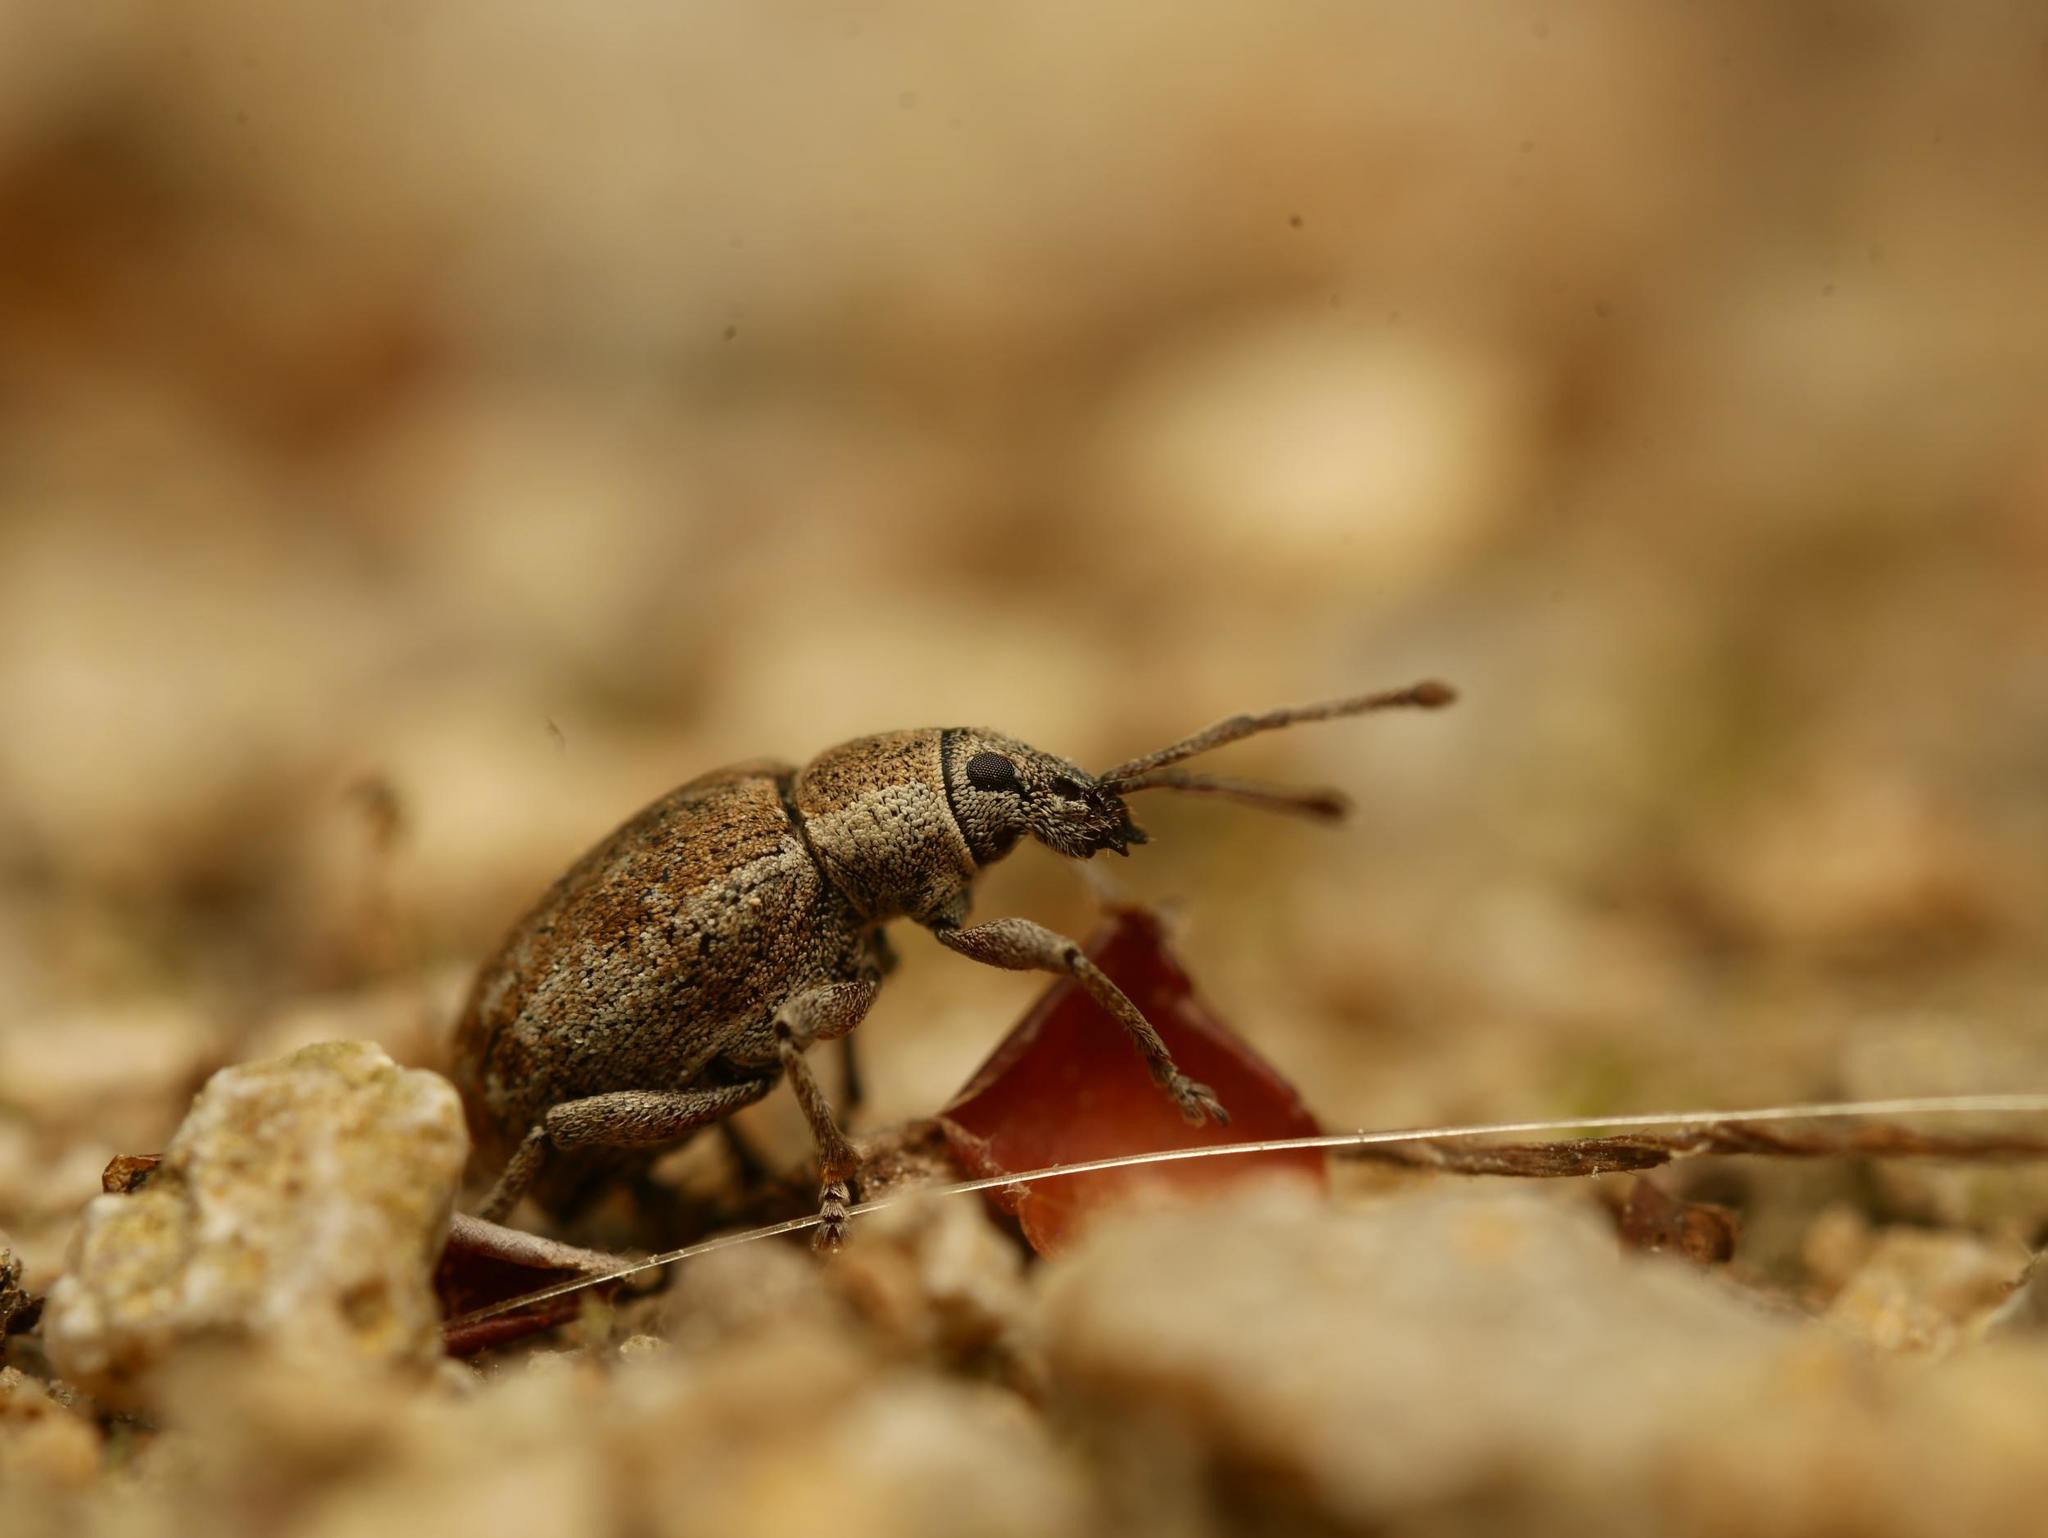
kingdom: Animalia
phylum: Arthropoda
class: Insecta
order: Coleoptera
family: Curculionidae
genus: Peritelus
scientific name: Peritelus sphaeroides
